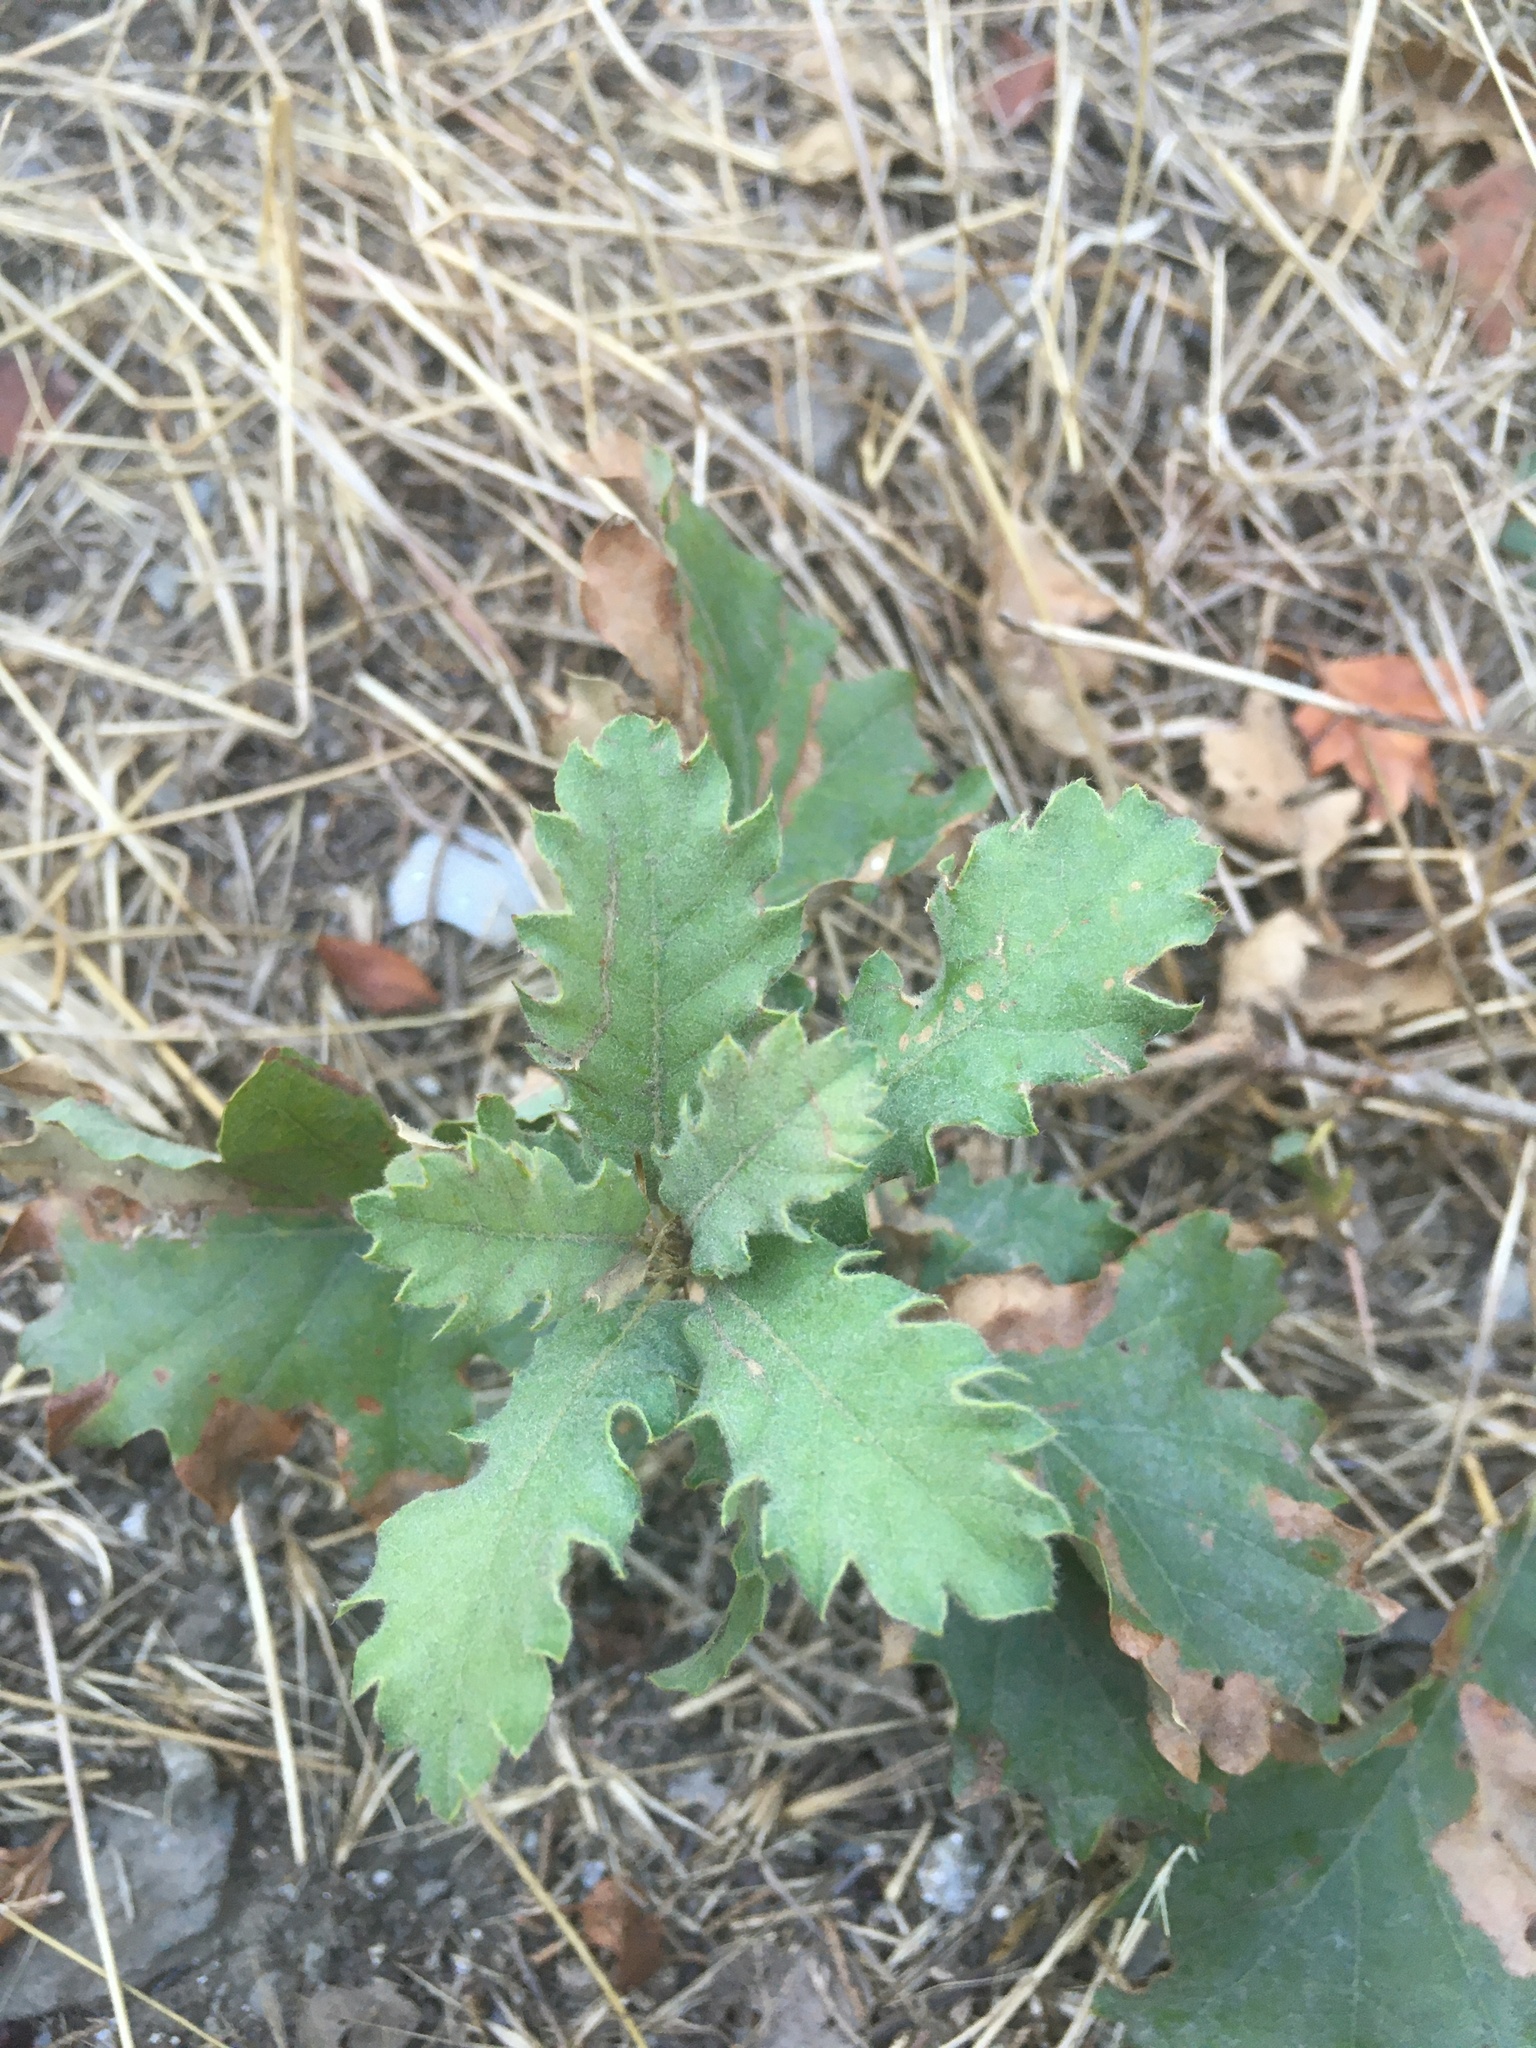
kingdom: Plantae
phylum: Tracheophyta
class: Magnoliopsida
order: Fagales
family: Fagaceae
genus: Quercus
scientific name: Quercus pubescens
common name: Downy oak
